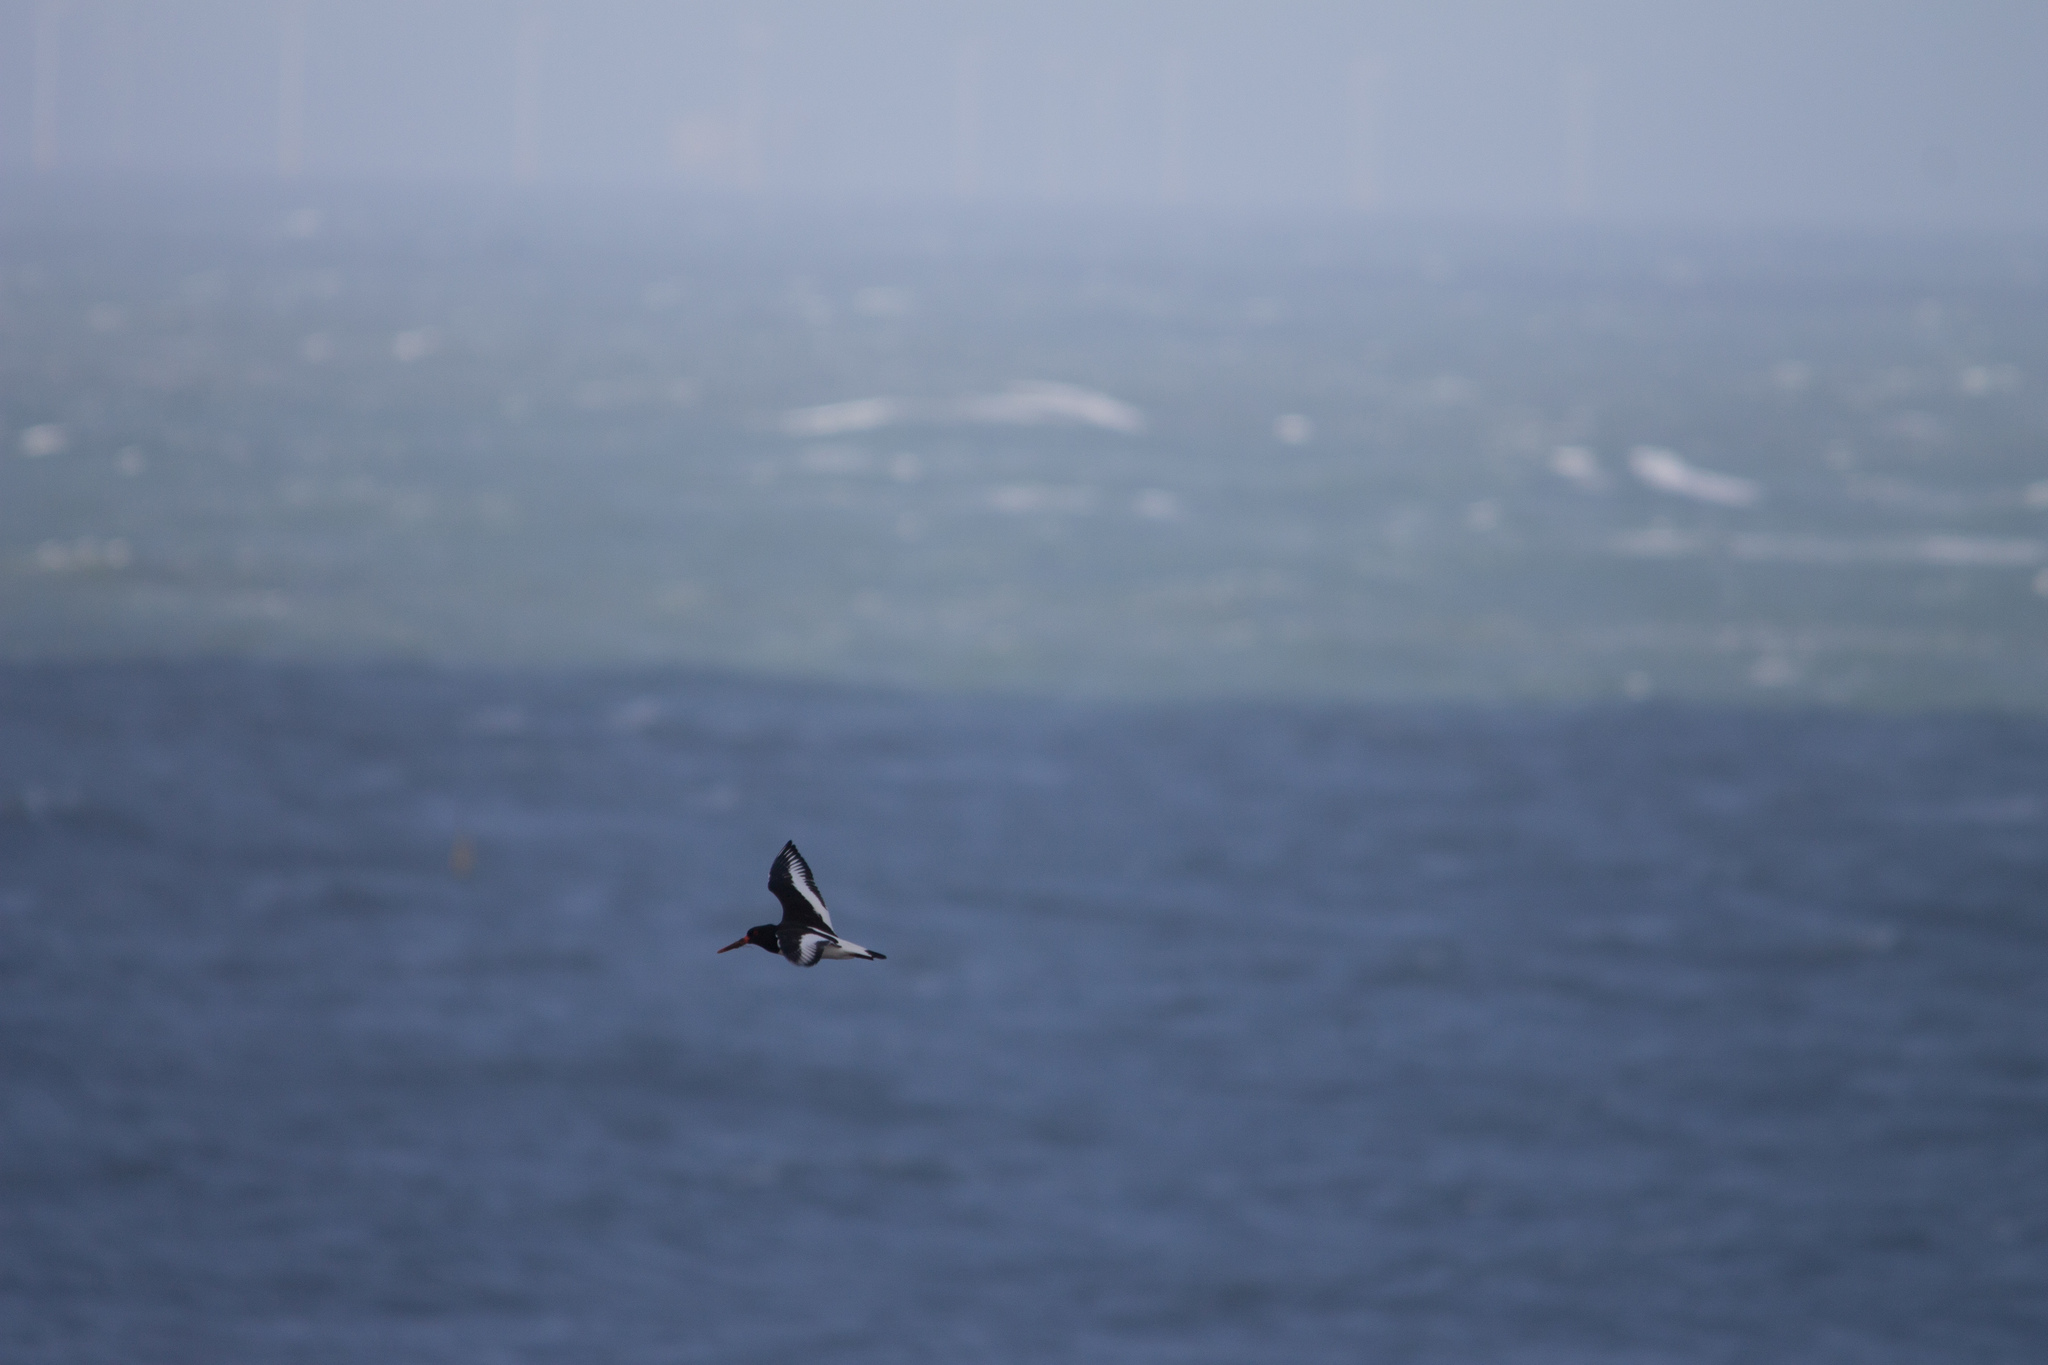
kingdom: Animalia
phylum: Chordata
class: Aves
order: Charadriiformes
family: Haematopodidae
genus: Haematopus
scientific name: Haematopus ostralegus
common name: Eurasian oystercatcher
